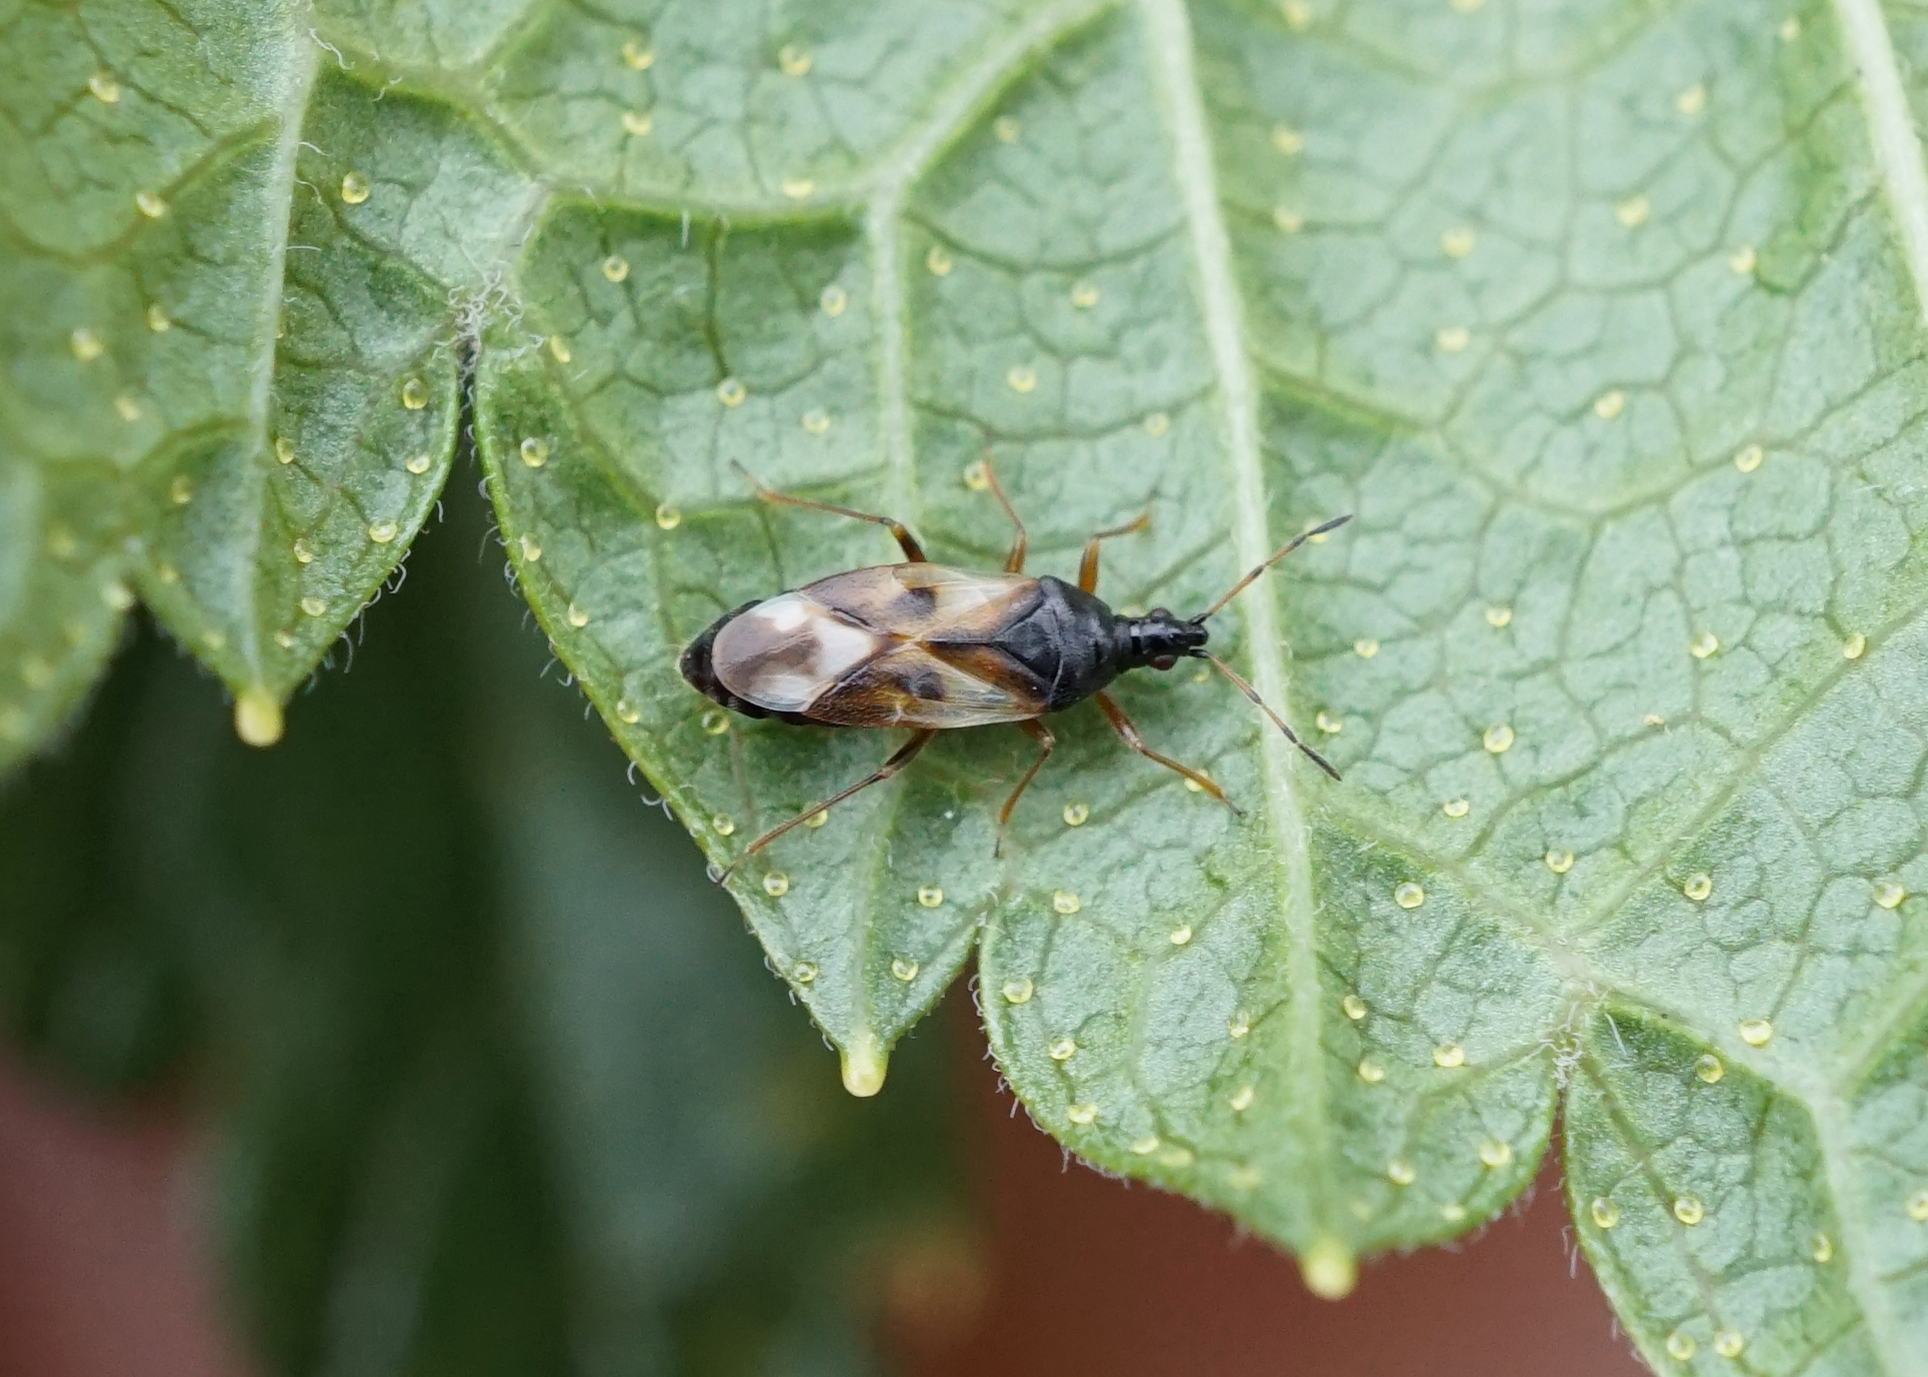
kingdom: Animalia
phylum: Arthropoda
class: Insecta
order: Hemiptera
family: Anthocoridae
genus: Anthocoris
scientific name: Anthocoris nemorum
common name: Minute pirate bug
